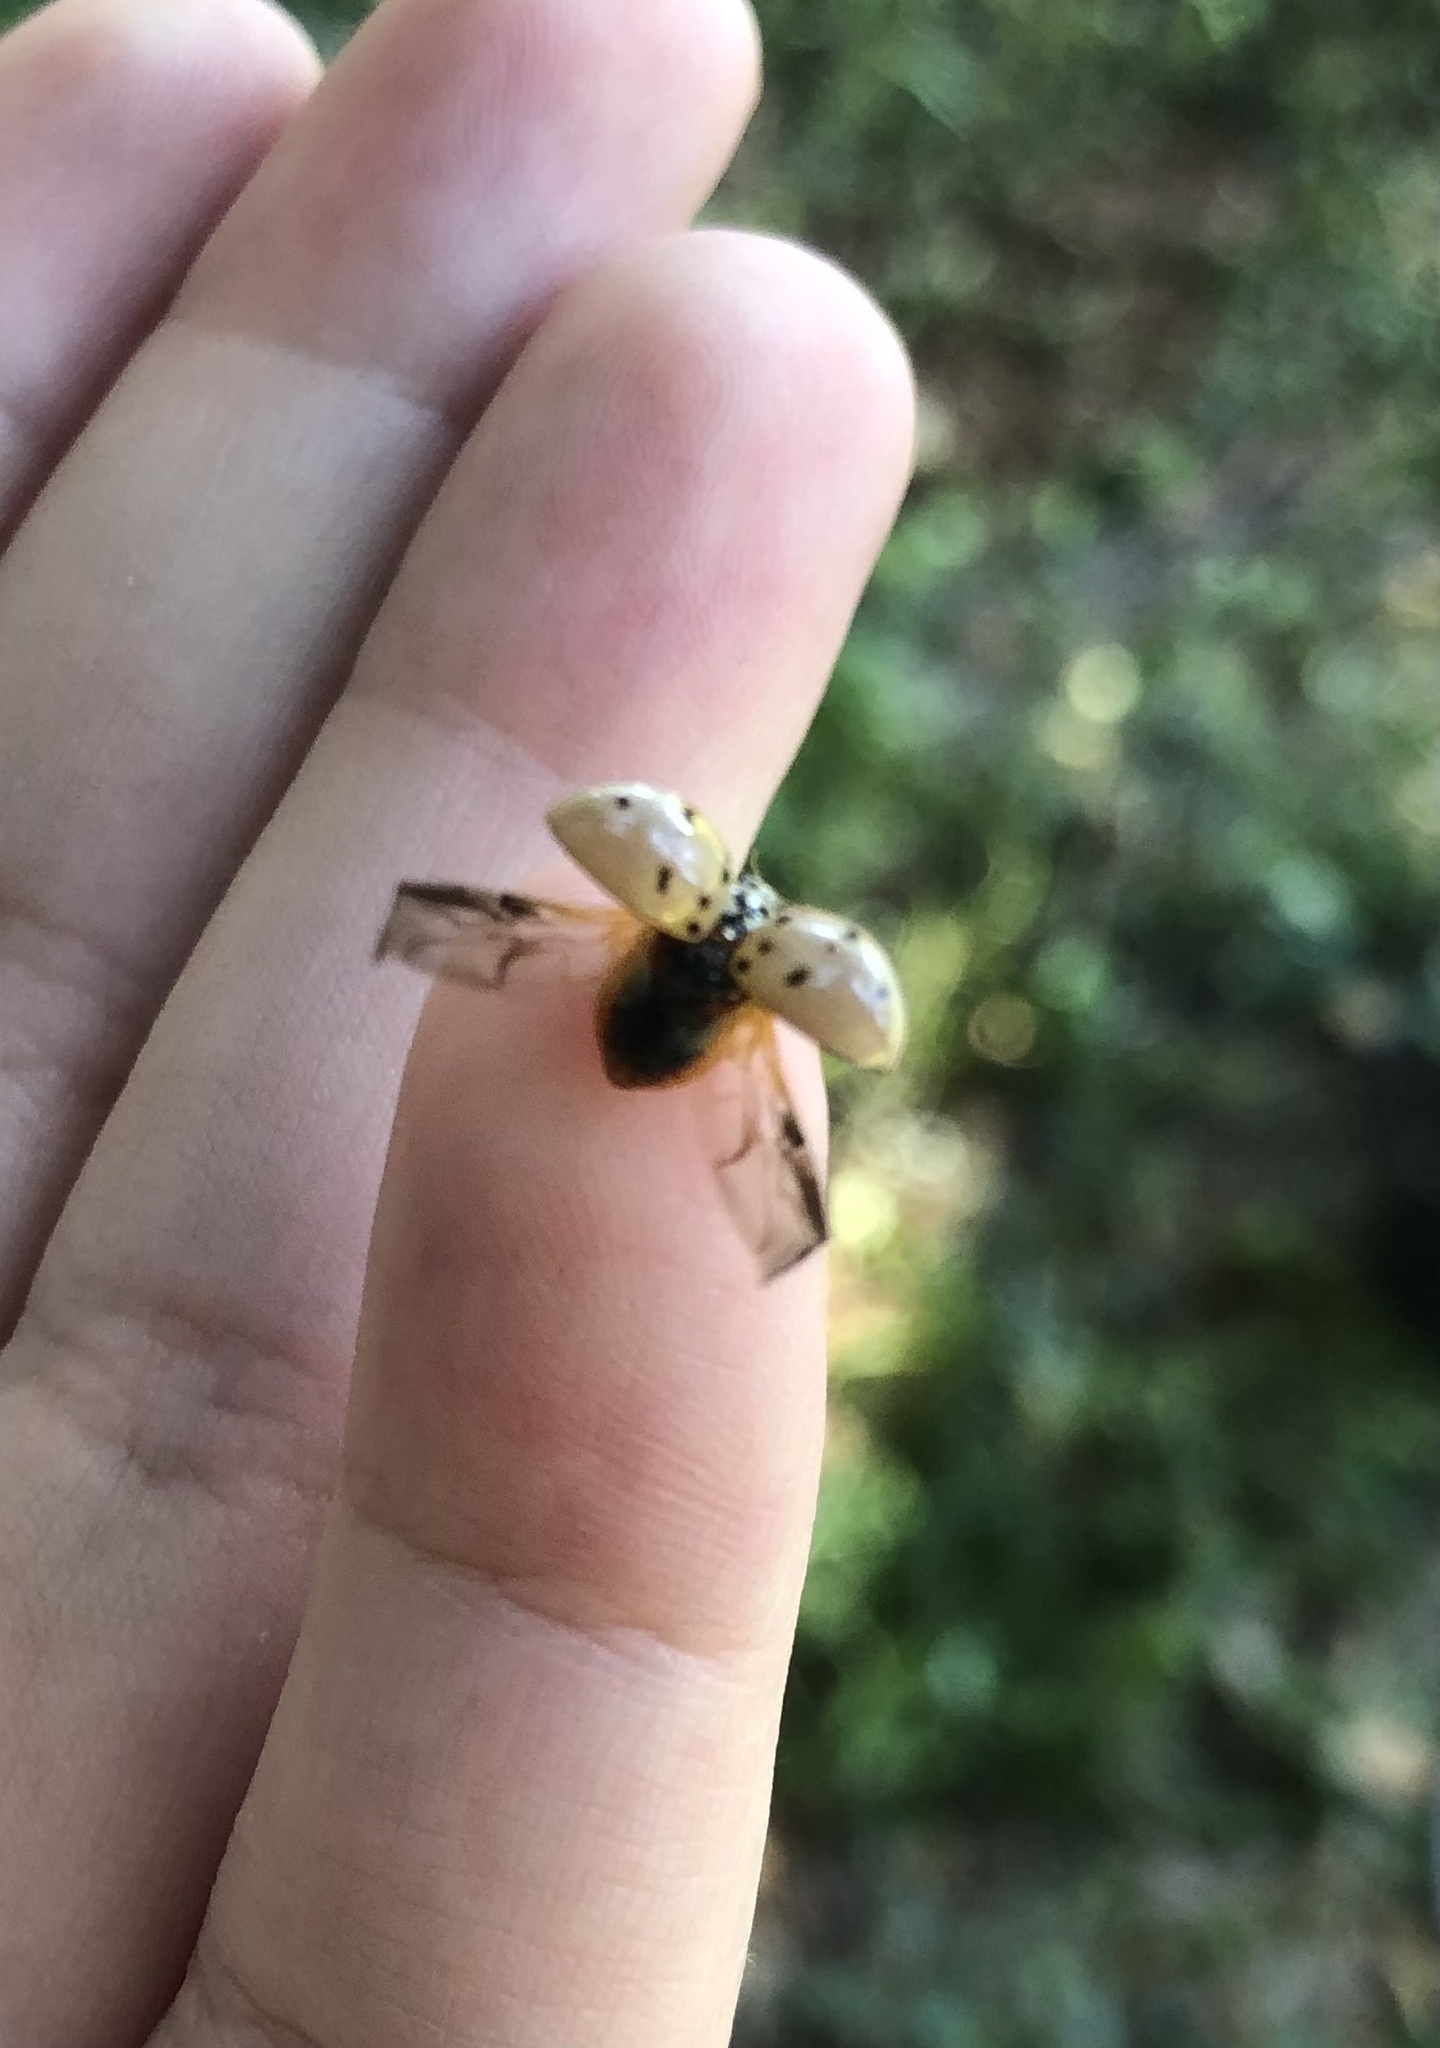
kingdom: Animalia
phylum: Arthropoda
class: Insecta
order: Coleoptera
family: Coccinellidae
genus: Olla
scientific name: Olla v-nigrum
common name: Ashy gray lady beetle
